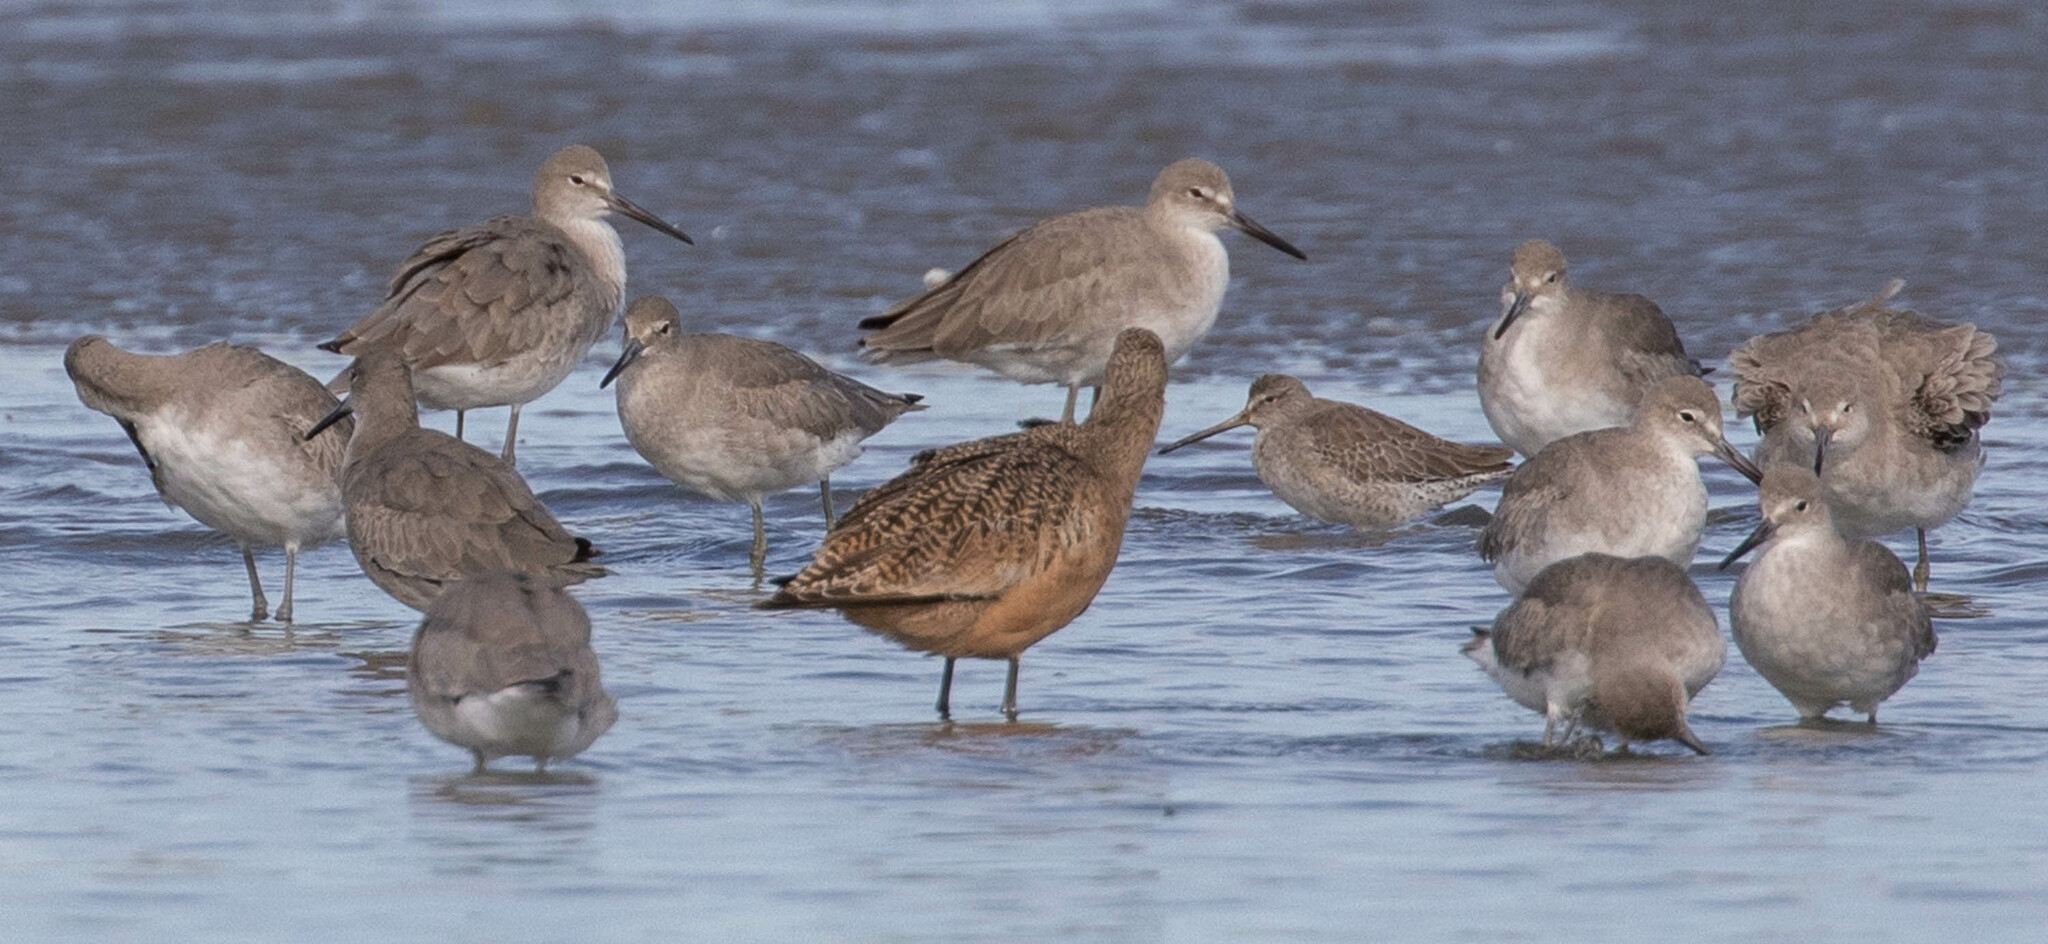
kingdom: Animalia
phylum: Chordata
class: Aves
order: Charadriiformes
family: Scolopacidae
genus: Tringa
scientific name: Tringa semipalmata
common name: Willet
